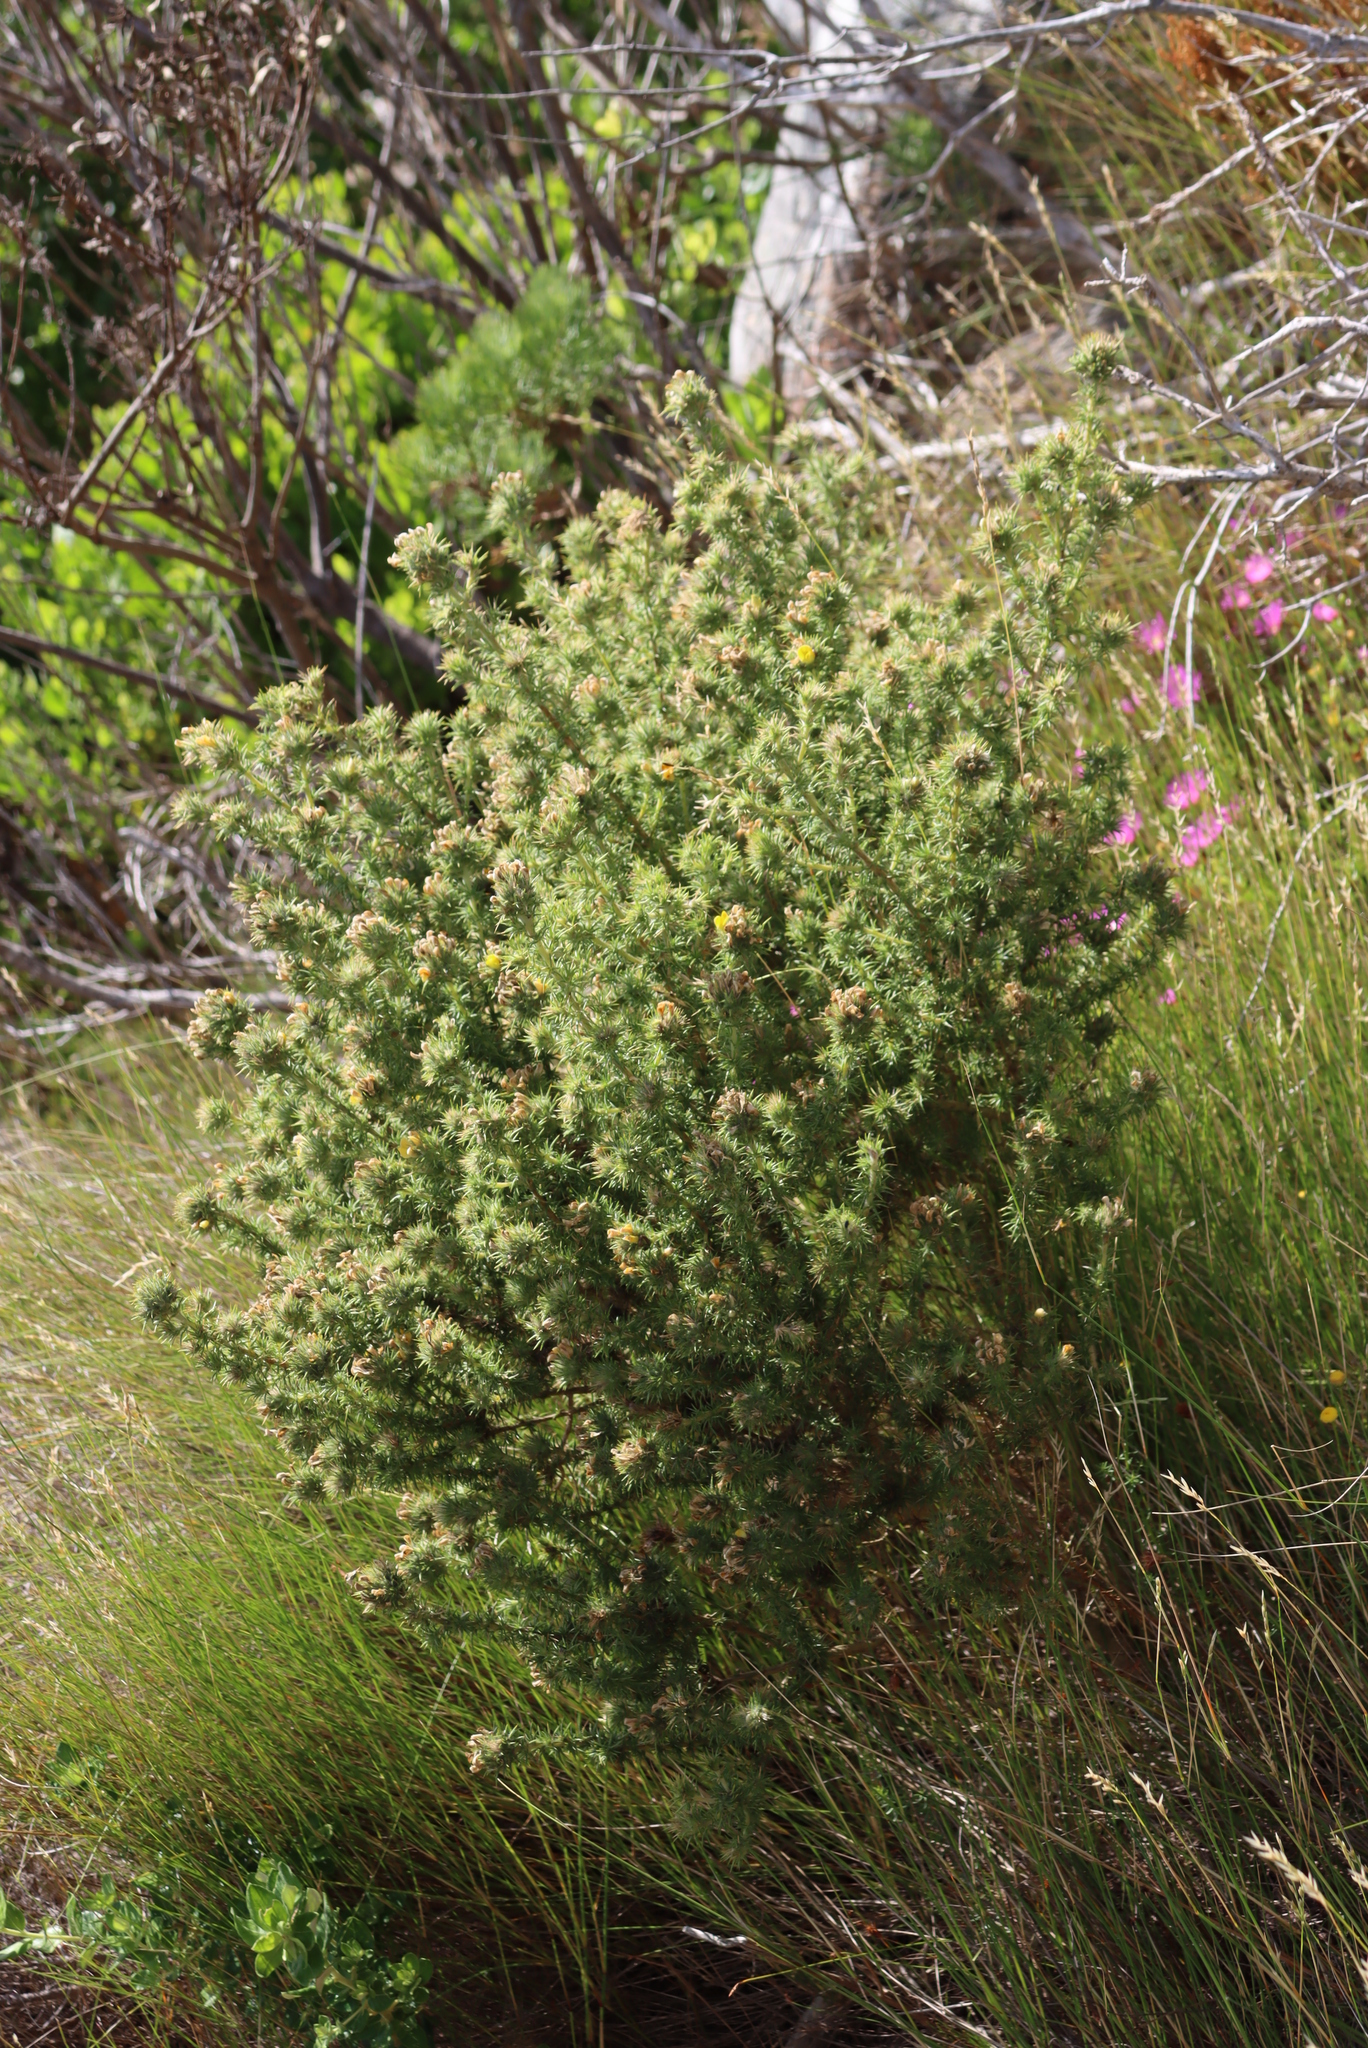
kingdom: Plantae
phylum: Tracheophyta
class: Magnoliopsida
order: Fabales
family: Fabaceae
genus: Aspalathus
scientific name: Aspalathus chenopoda
